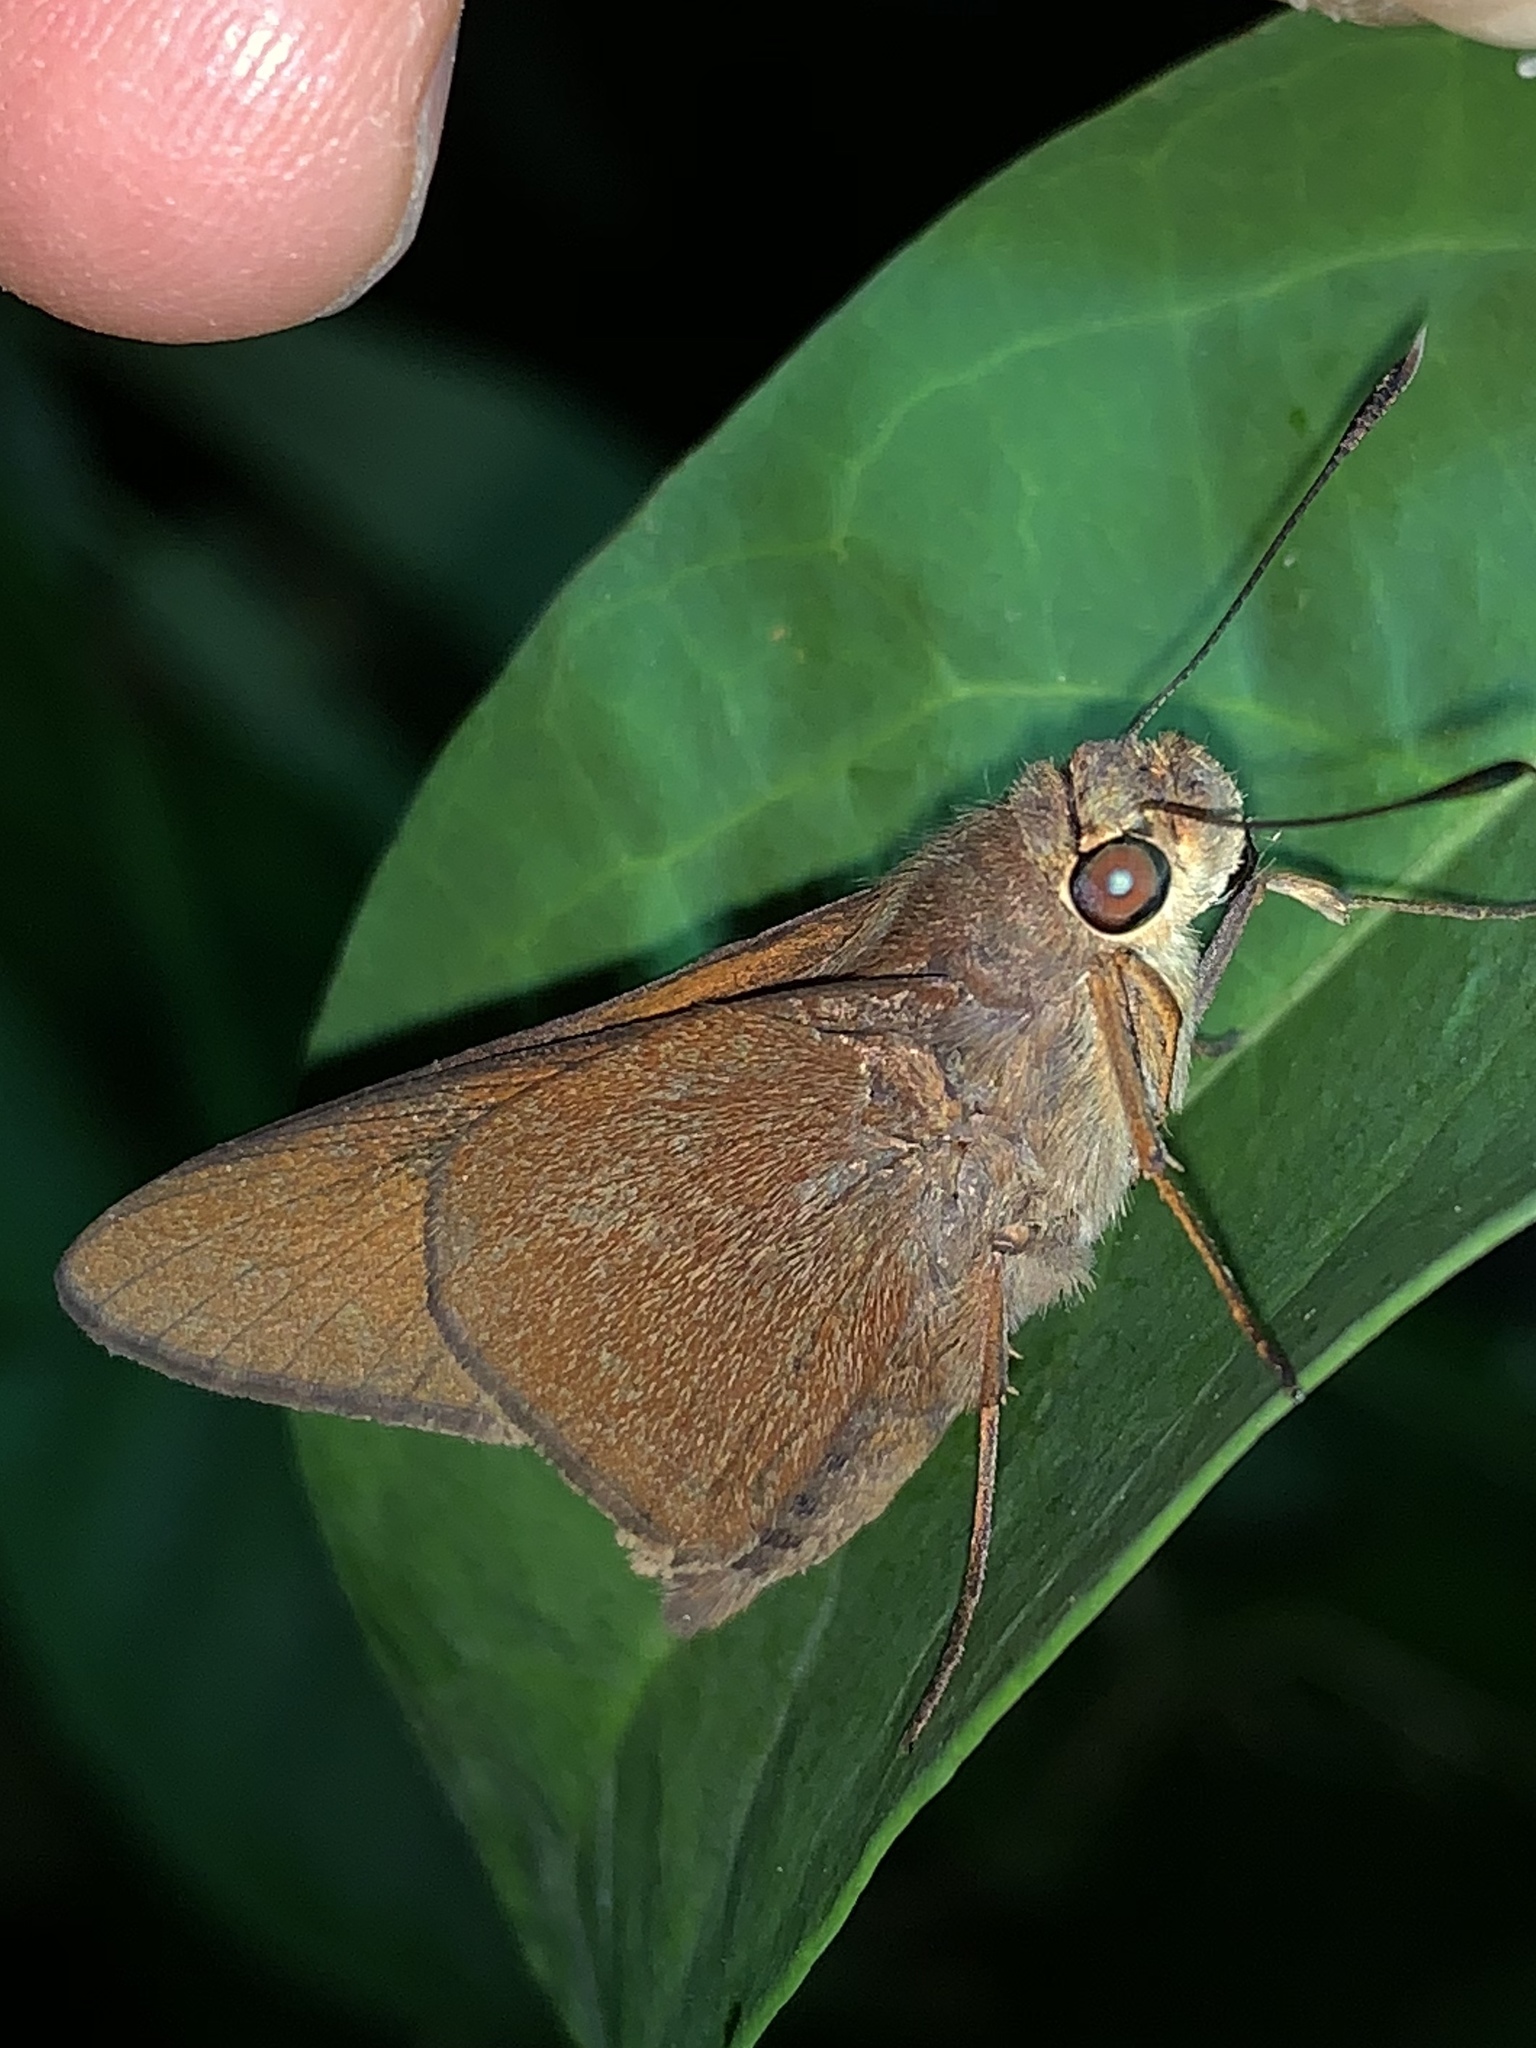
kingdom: Animalia
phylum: Arthropoda
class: Insecta
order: Lepidoptera
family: Hesperiidae
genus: Asbolis
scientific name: Asbolis capucinus
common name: Monk skipper
